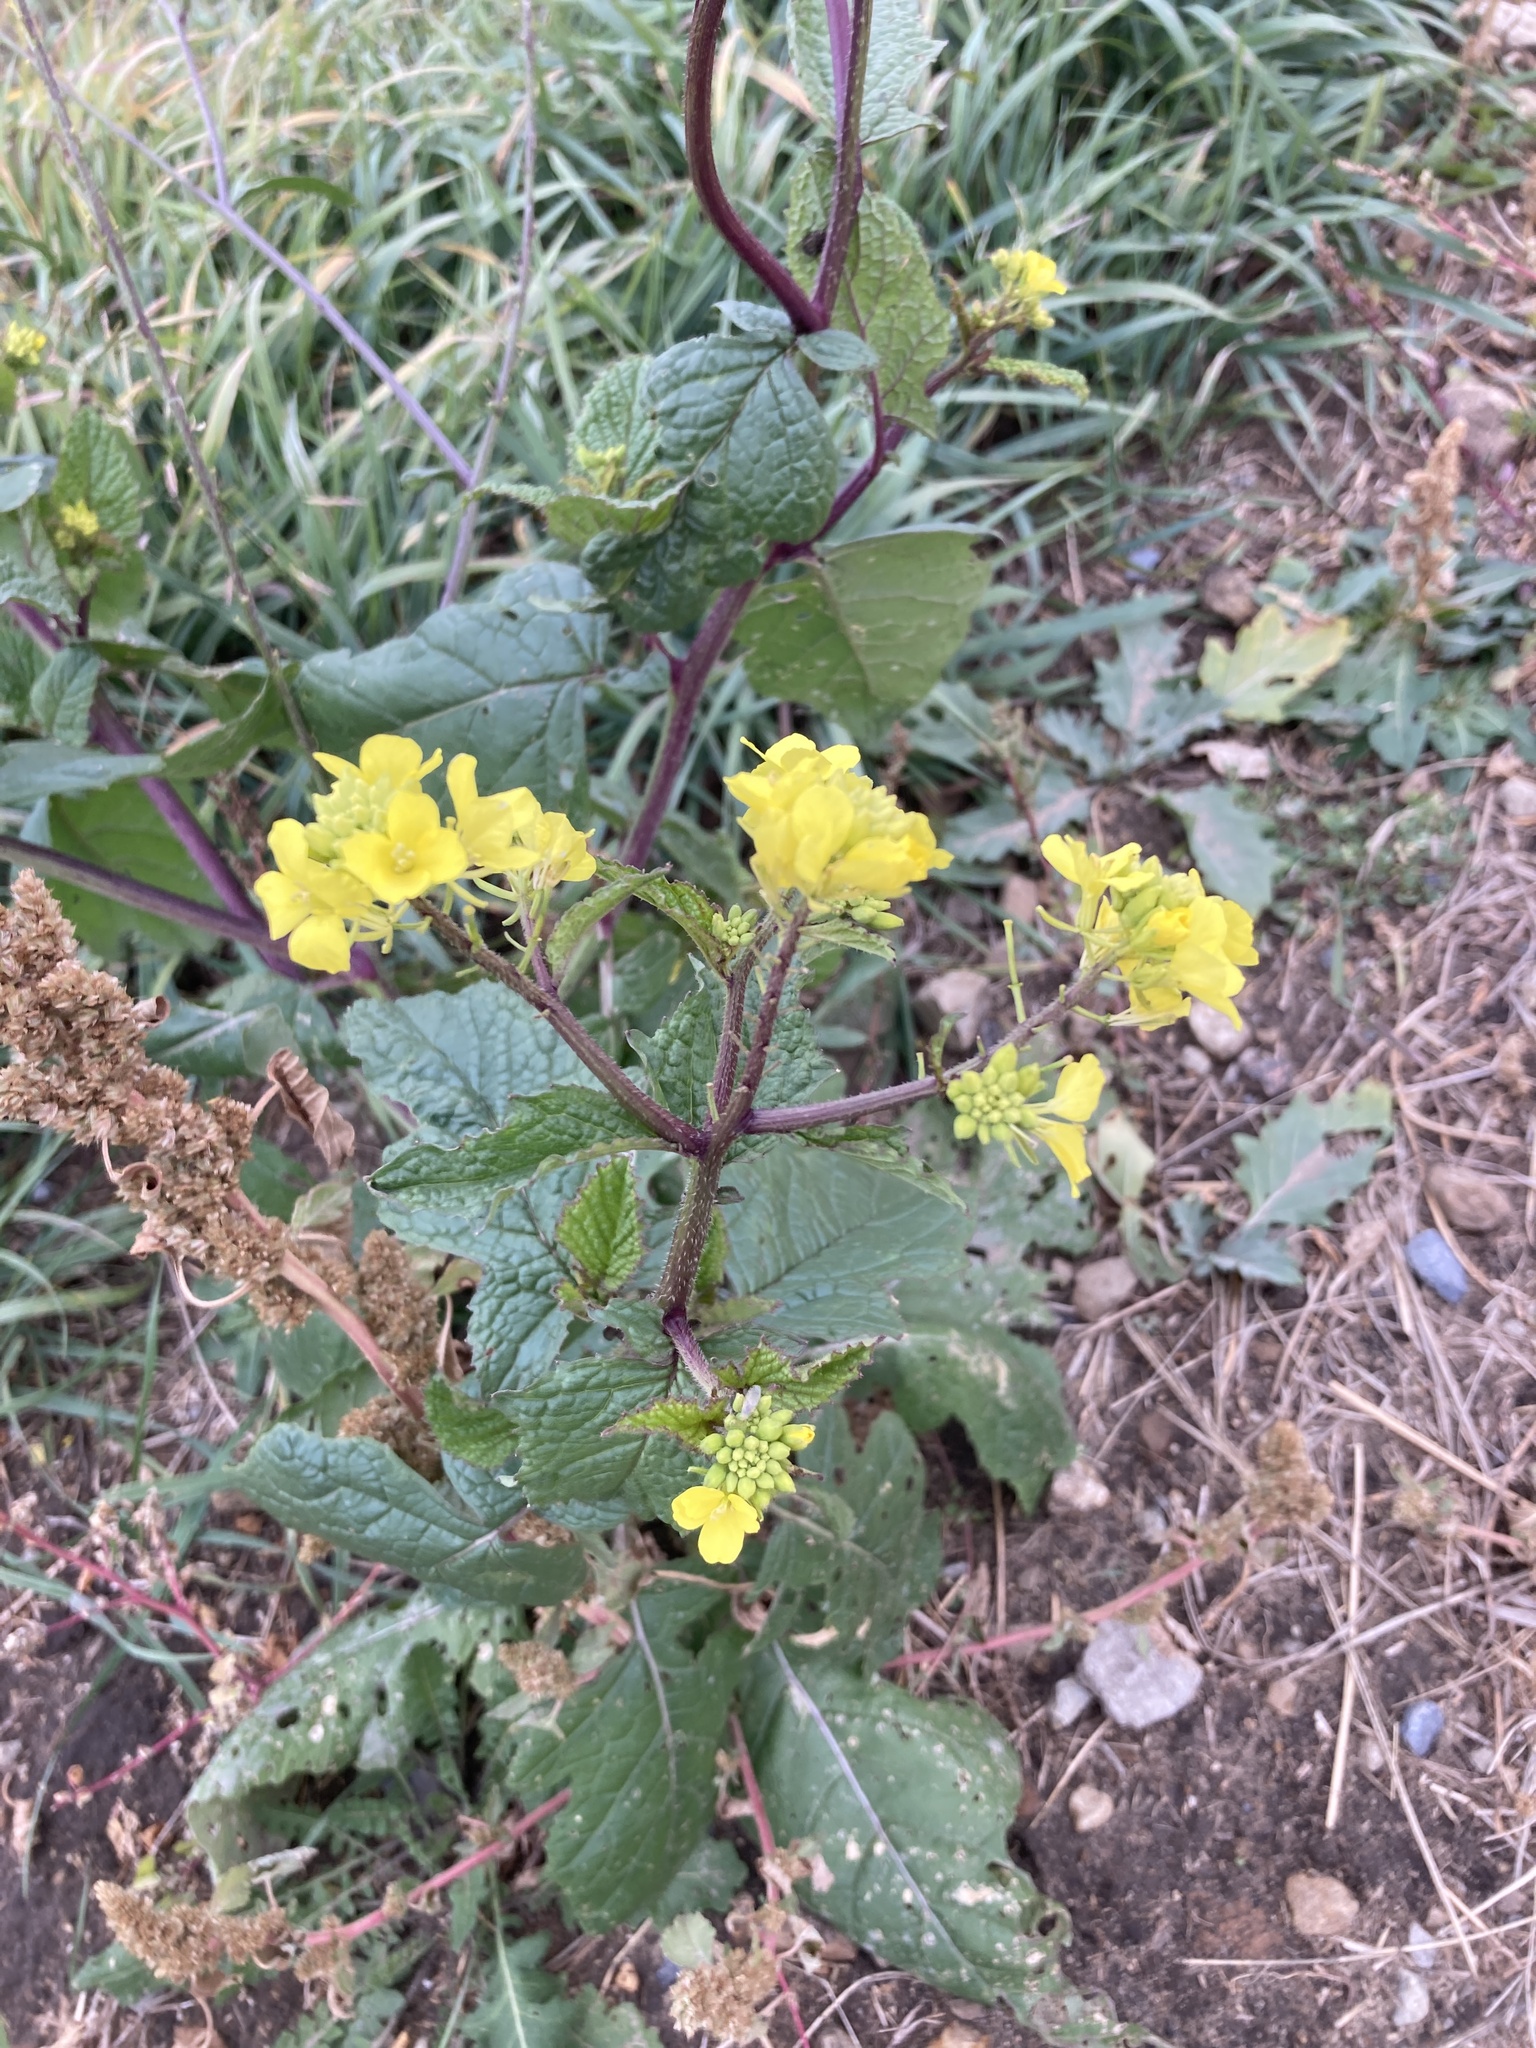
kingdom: Plantae
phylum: Tracheophyta
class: Magnoliopsida
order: Brassicales
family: Brassicaceae
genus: Sinapis
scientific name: Sinapis arvensis
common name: Charlock
